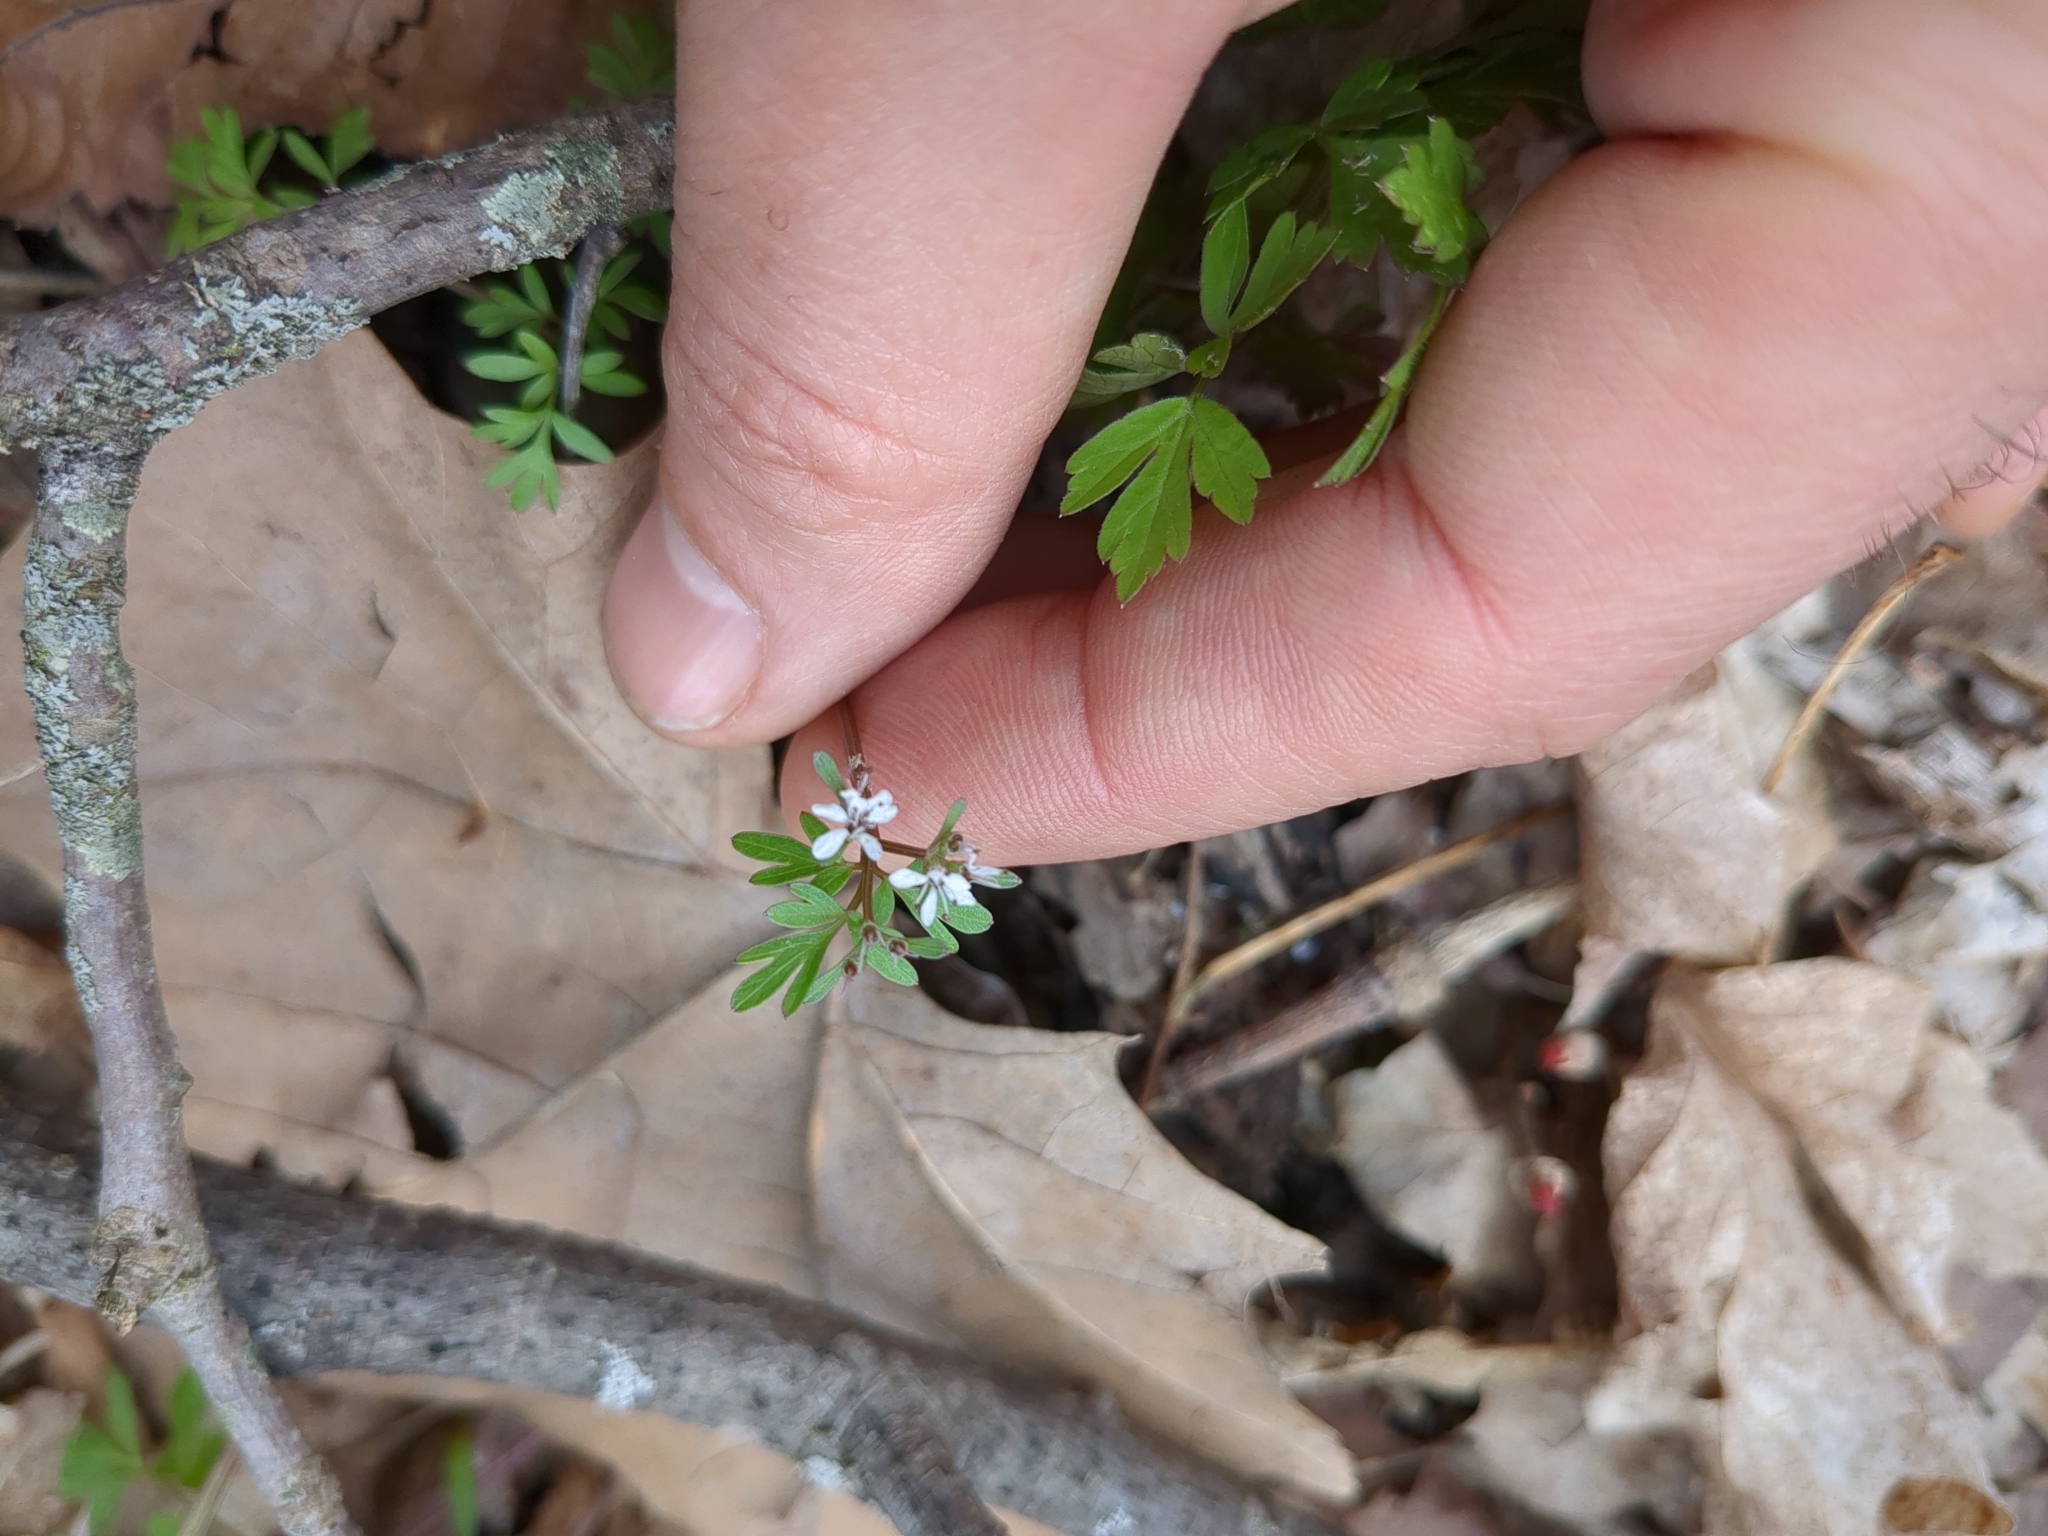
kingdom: Plantae
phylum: Tracheophyta
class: Magnoliopsida
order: Apiales
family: Apiaceae
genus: Erigenia
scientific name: Erigenia bulbosa
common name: Pepper-and-salt
